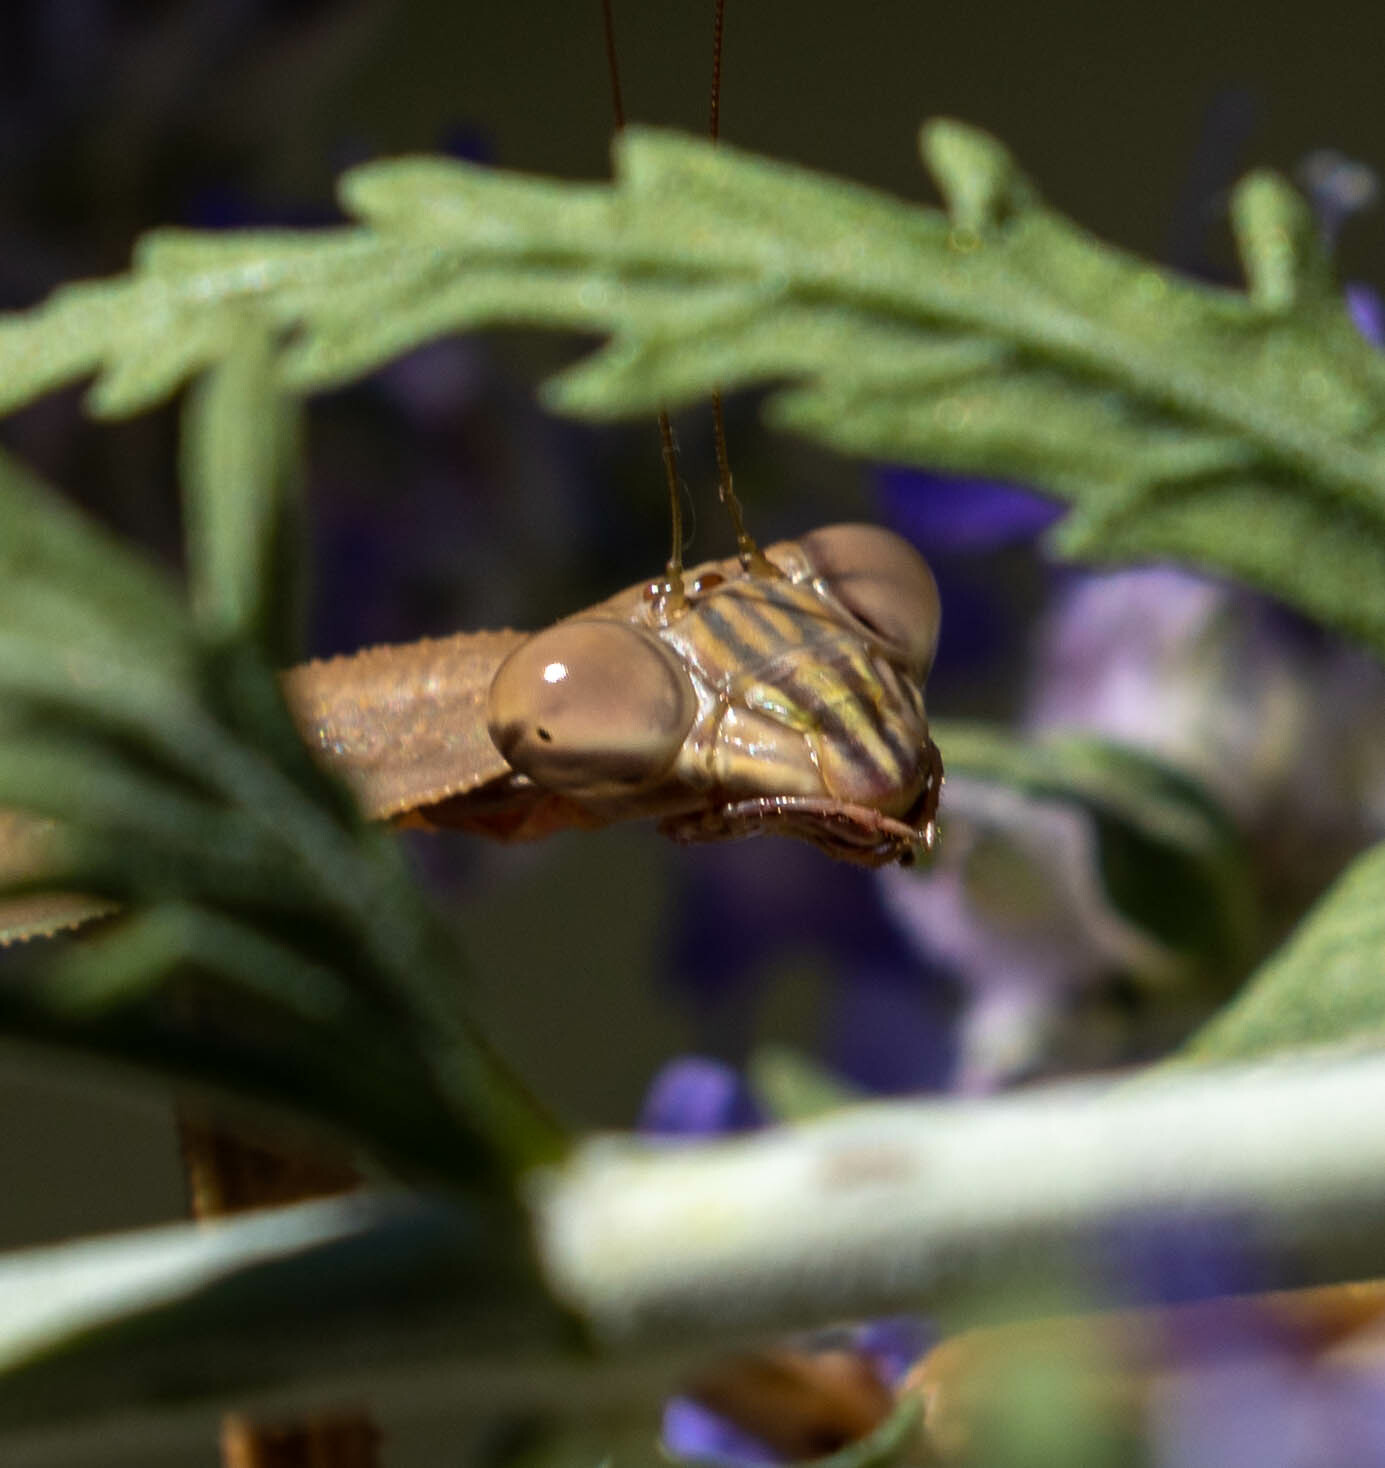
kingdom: Animalia
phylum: Arthropoda
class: Insecta
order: Mantodea
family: Mantidae
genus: Tenodera
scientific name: Tenodera sinensis
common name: Chinese mantis
